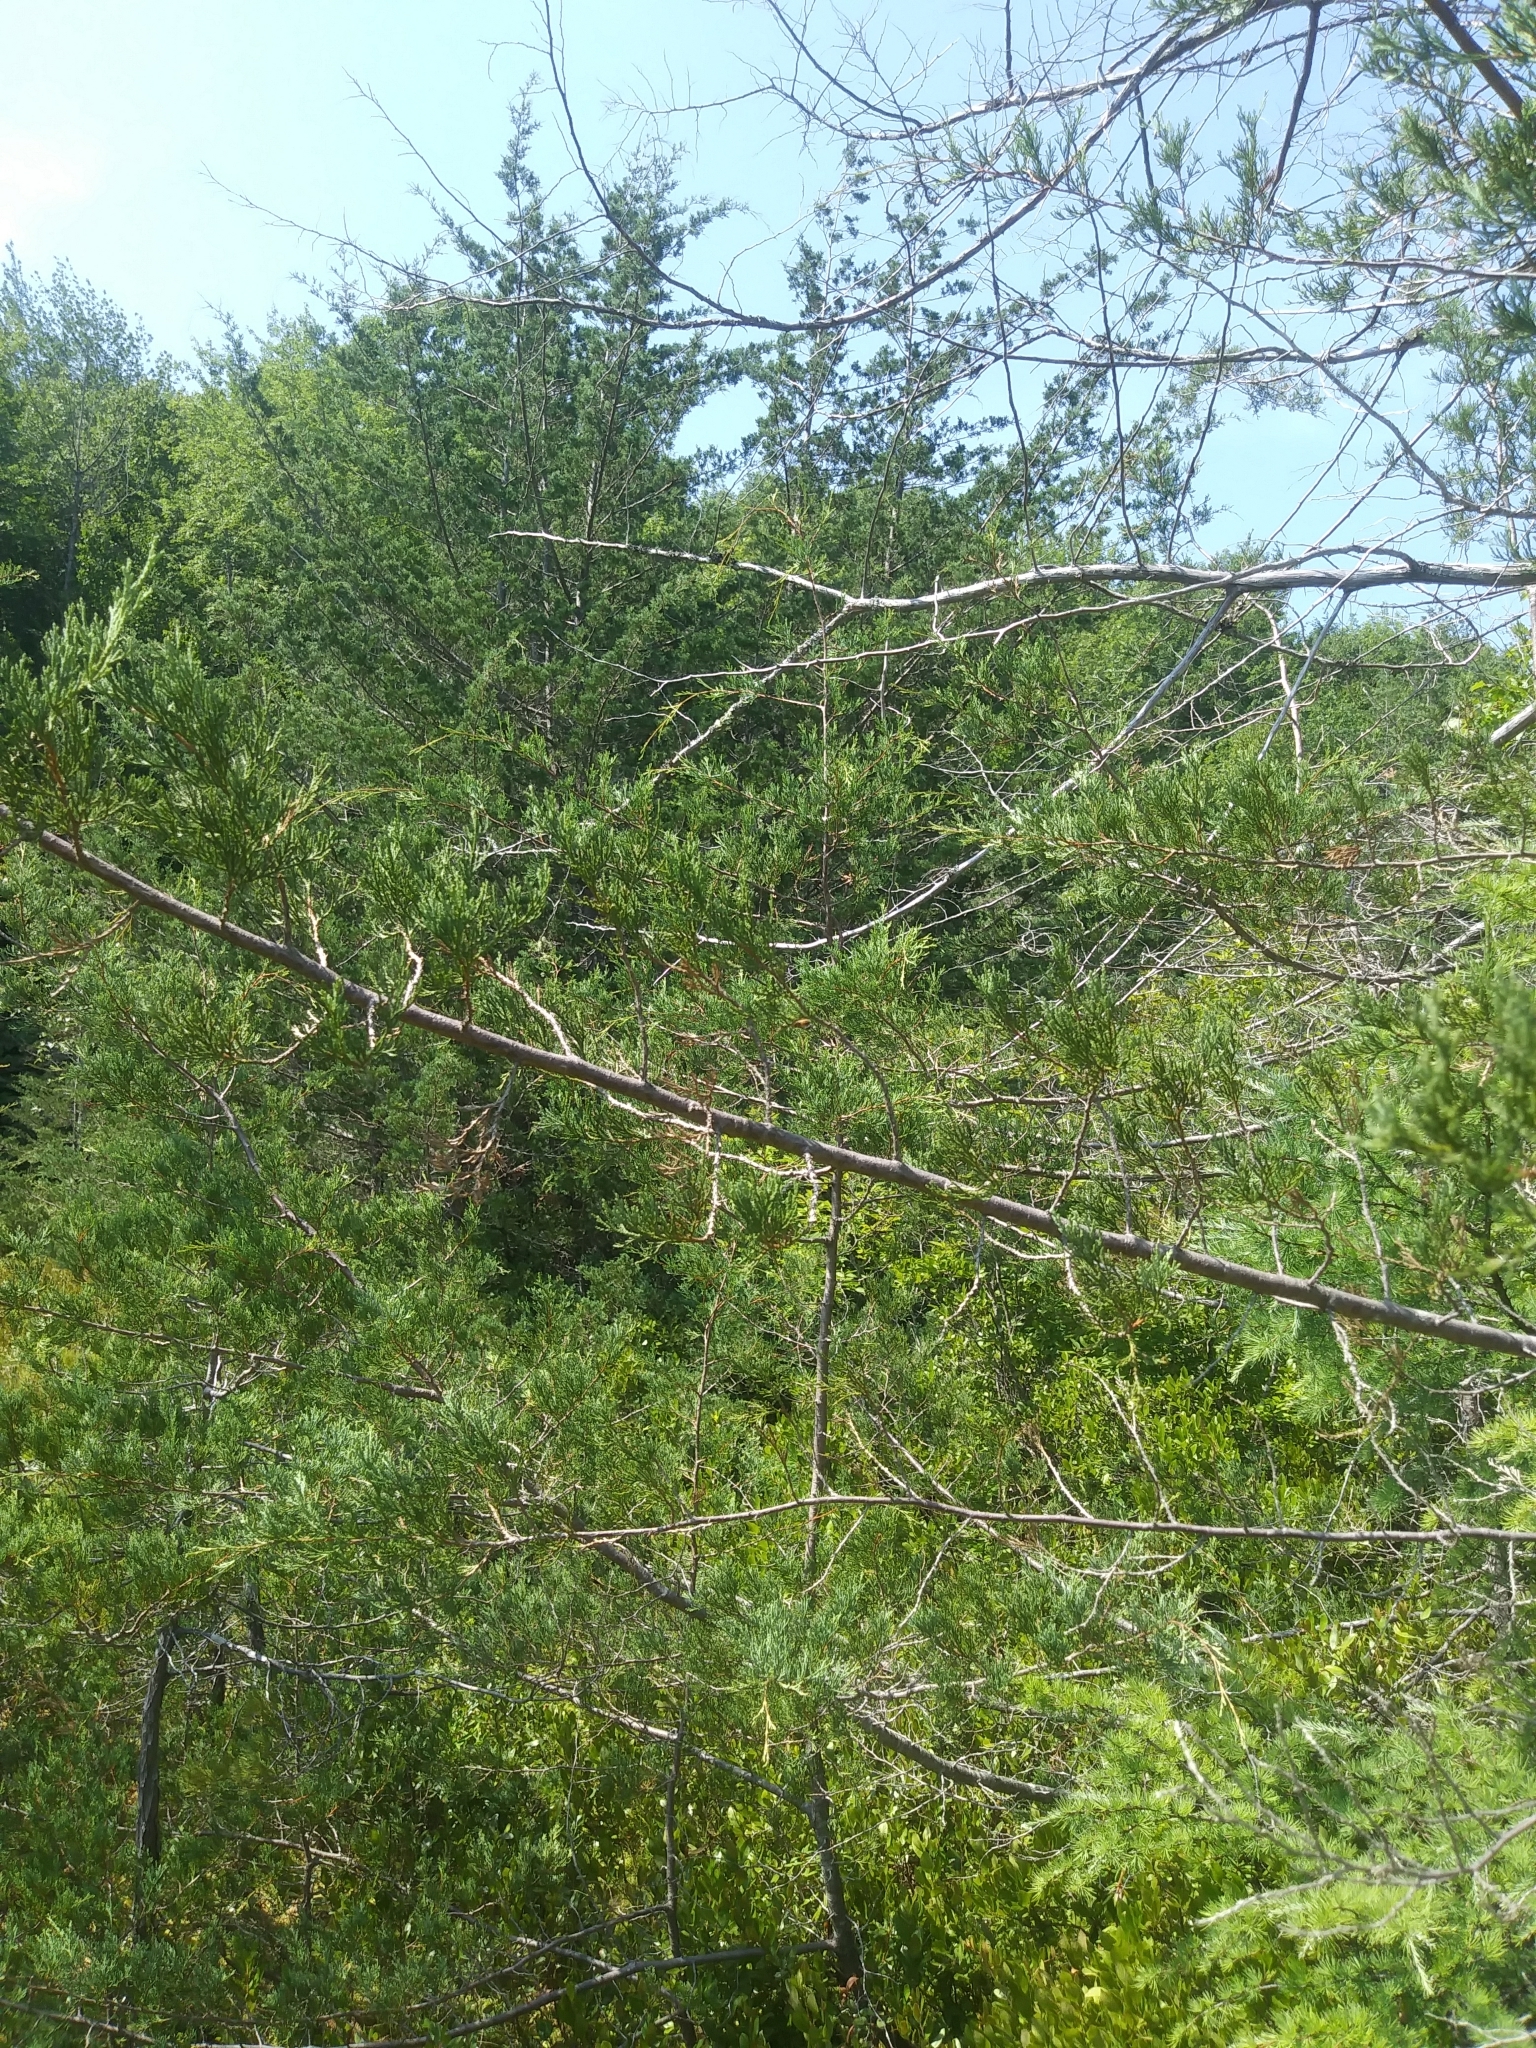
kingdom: Plantae
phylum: Tracheophyta
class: Pinopsida
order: Pinales
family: Cupressaceae
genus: Chamaecyparis
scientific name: Chamaecyparis thyoides
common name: Atlantic white cedar
